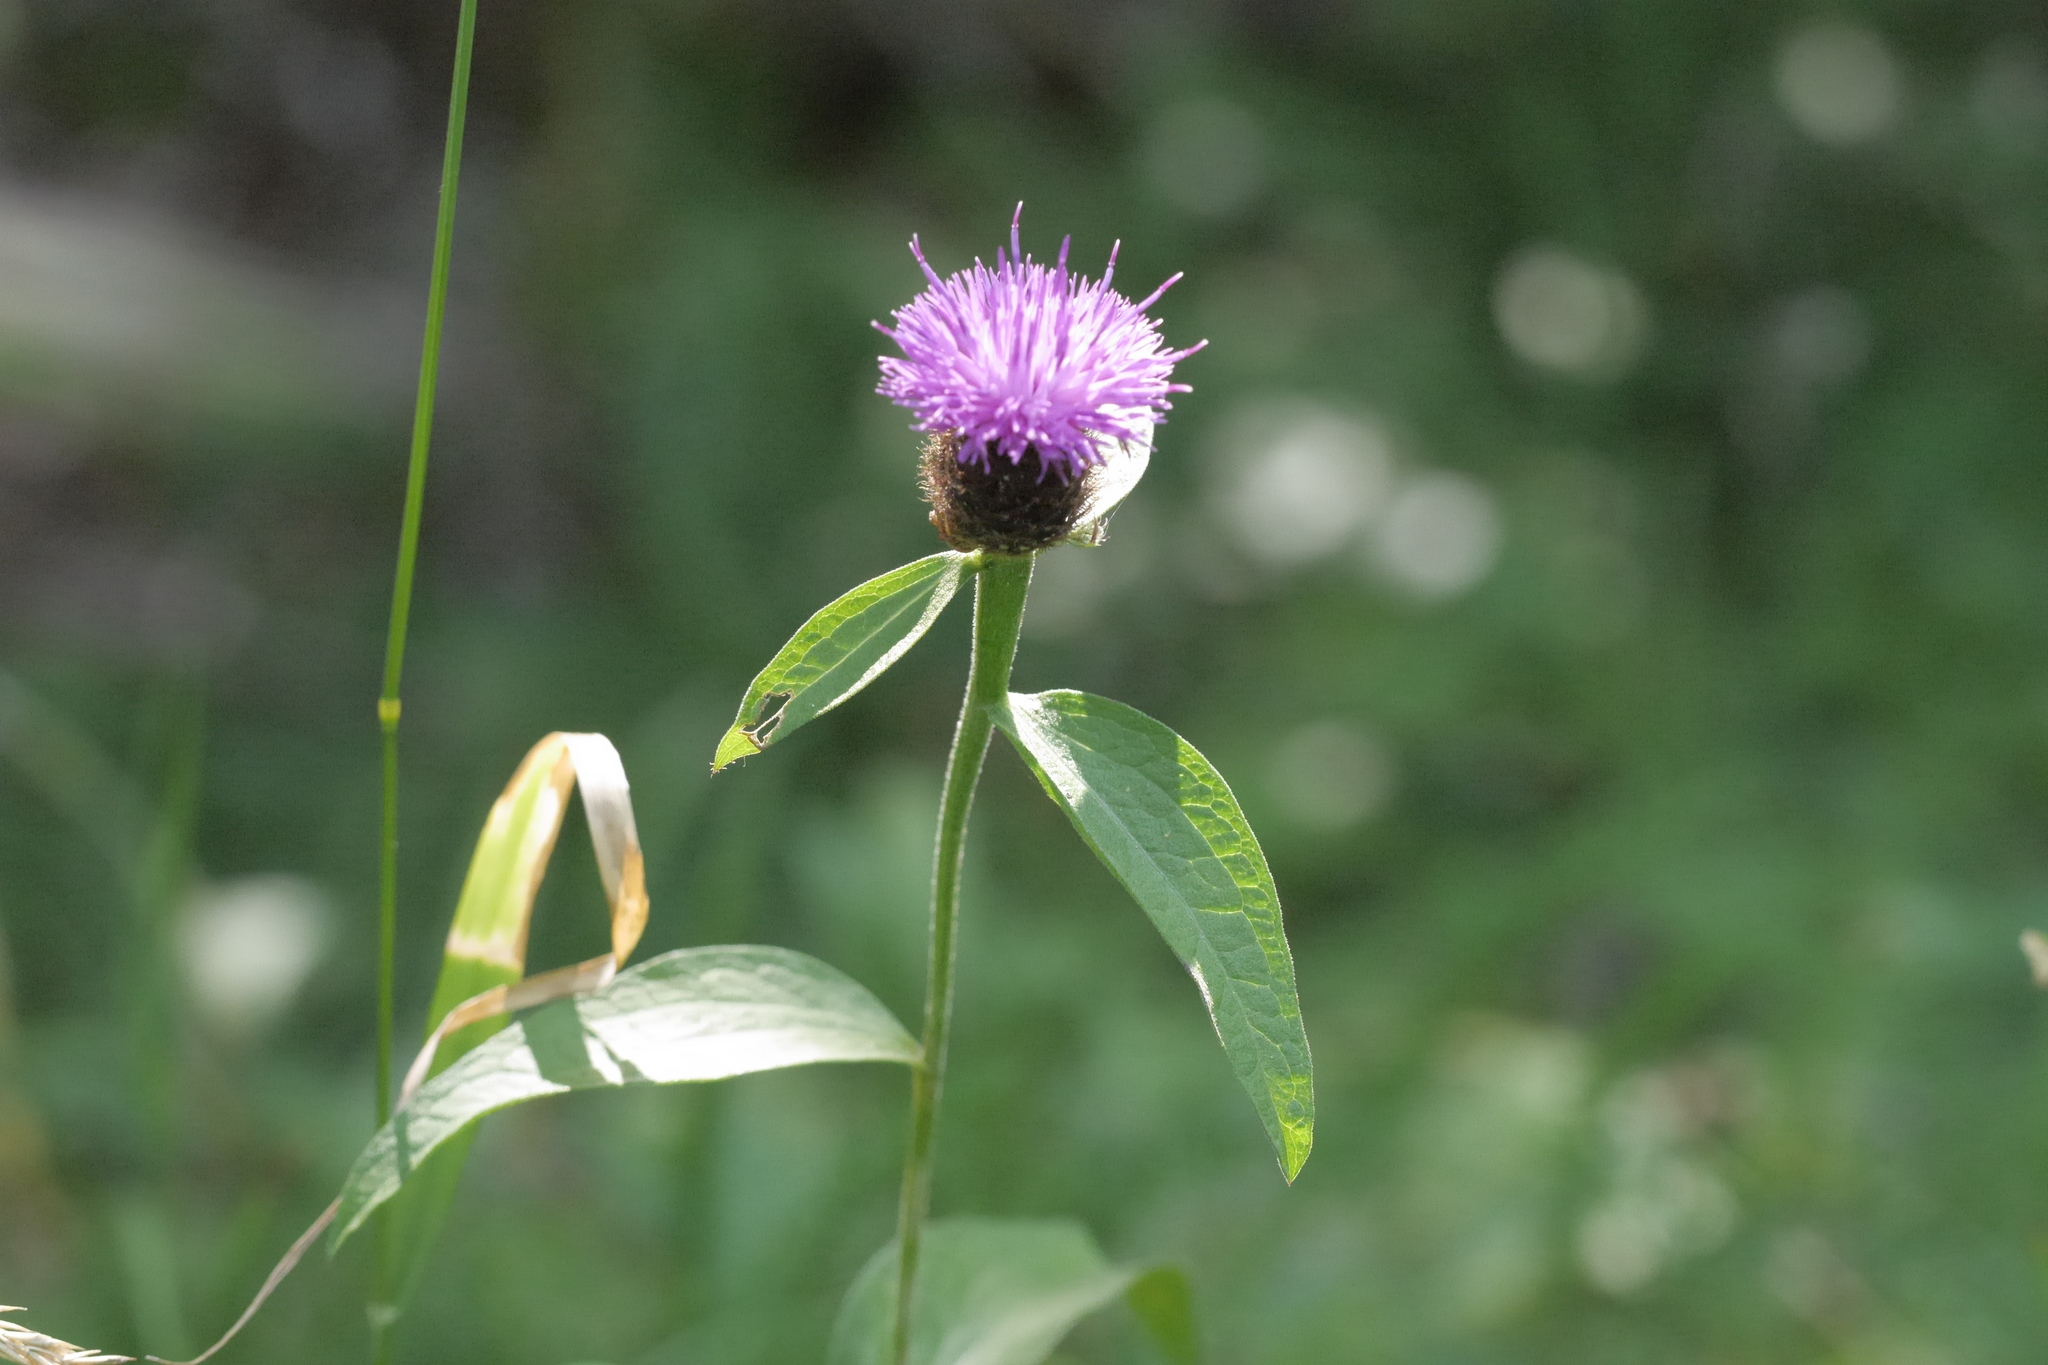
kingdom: Plantae
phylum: Tracheophyta
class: Magnoliopsida
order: Asterales
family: Asteraceae
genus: Centaurea
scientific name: Centaurea nigra
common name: Lesser knapweed
